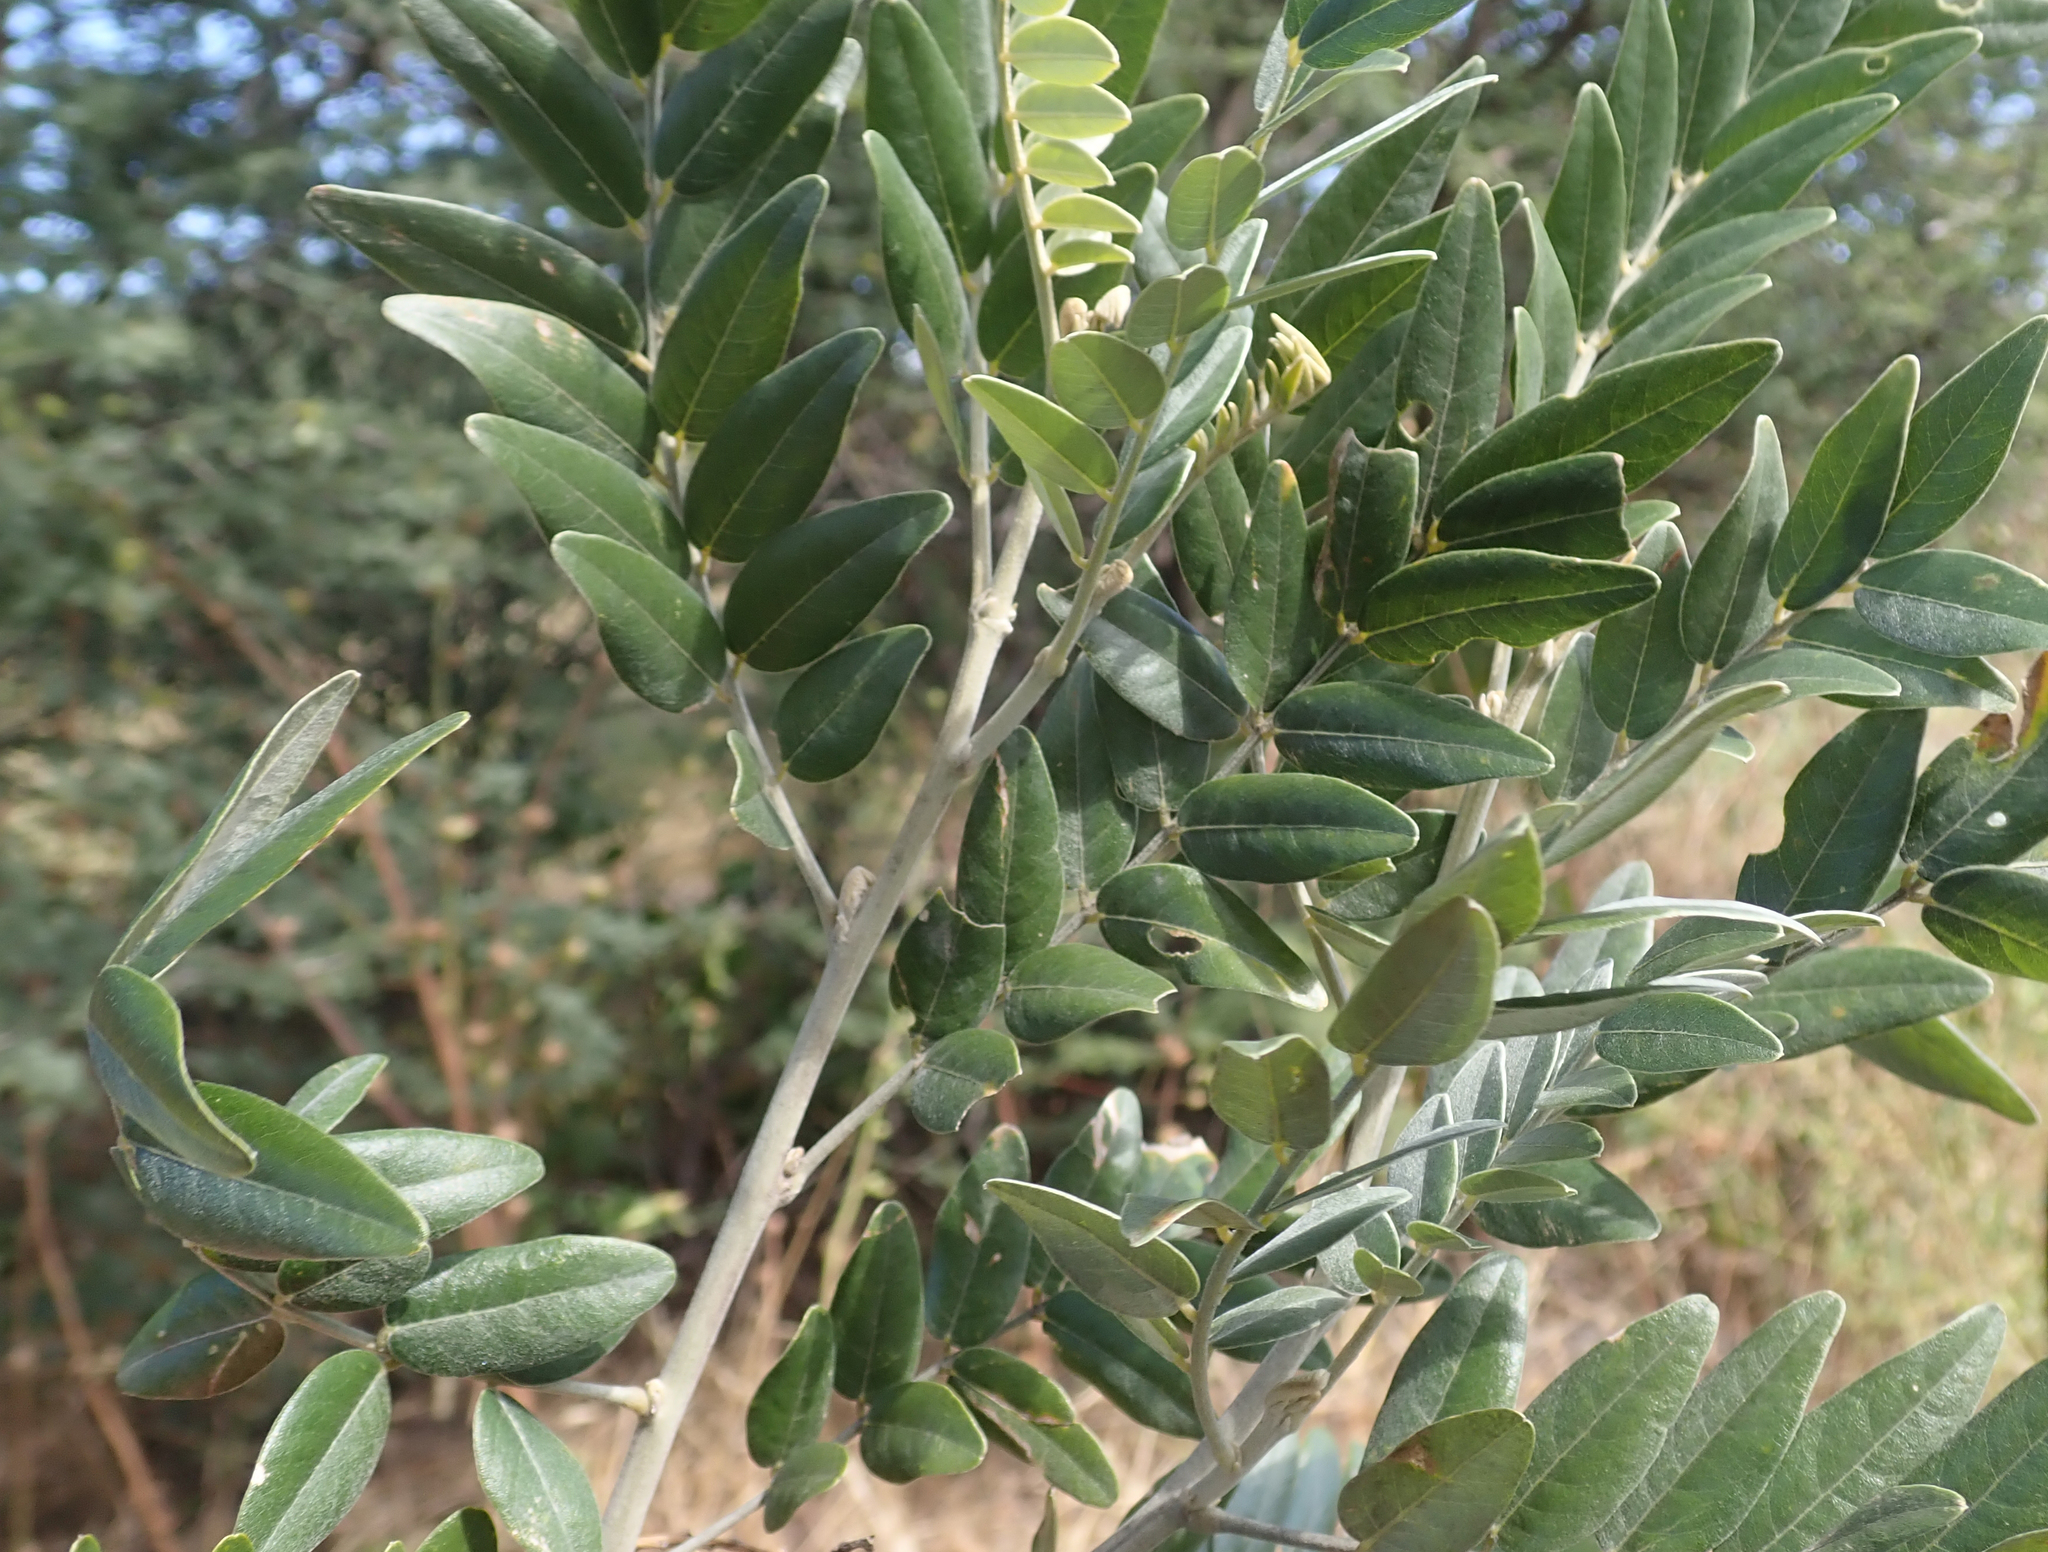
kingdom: Plantae
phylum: Tracheophyta
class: Magnoliopsida
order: Fabales
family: Fabaceae
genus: Mundulea
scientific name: Mundulea sericea
